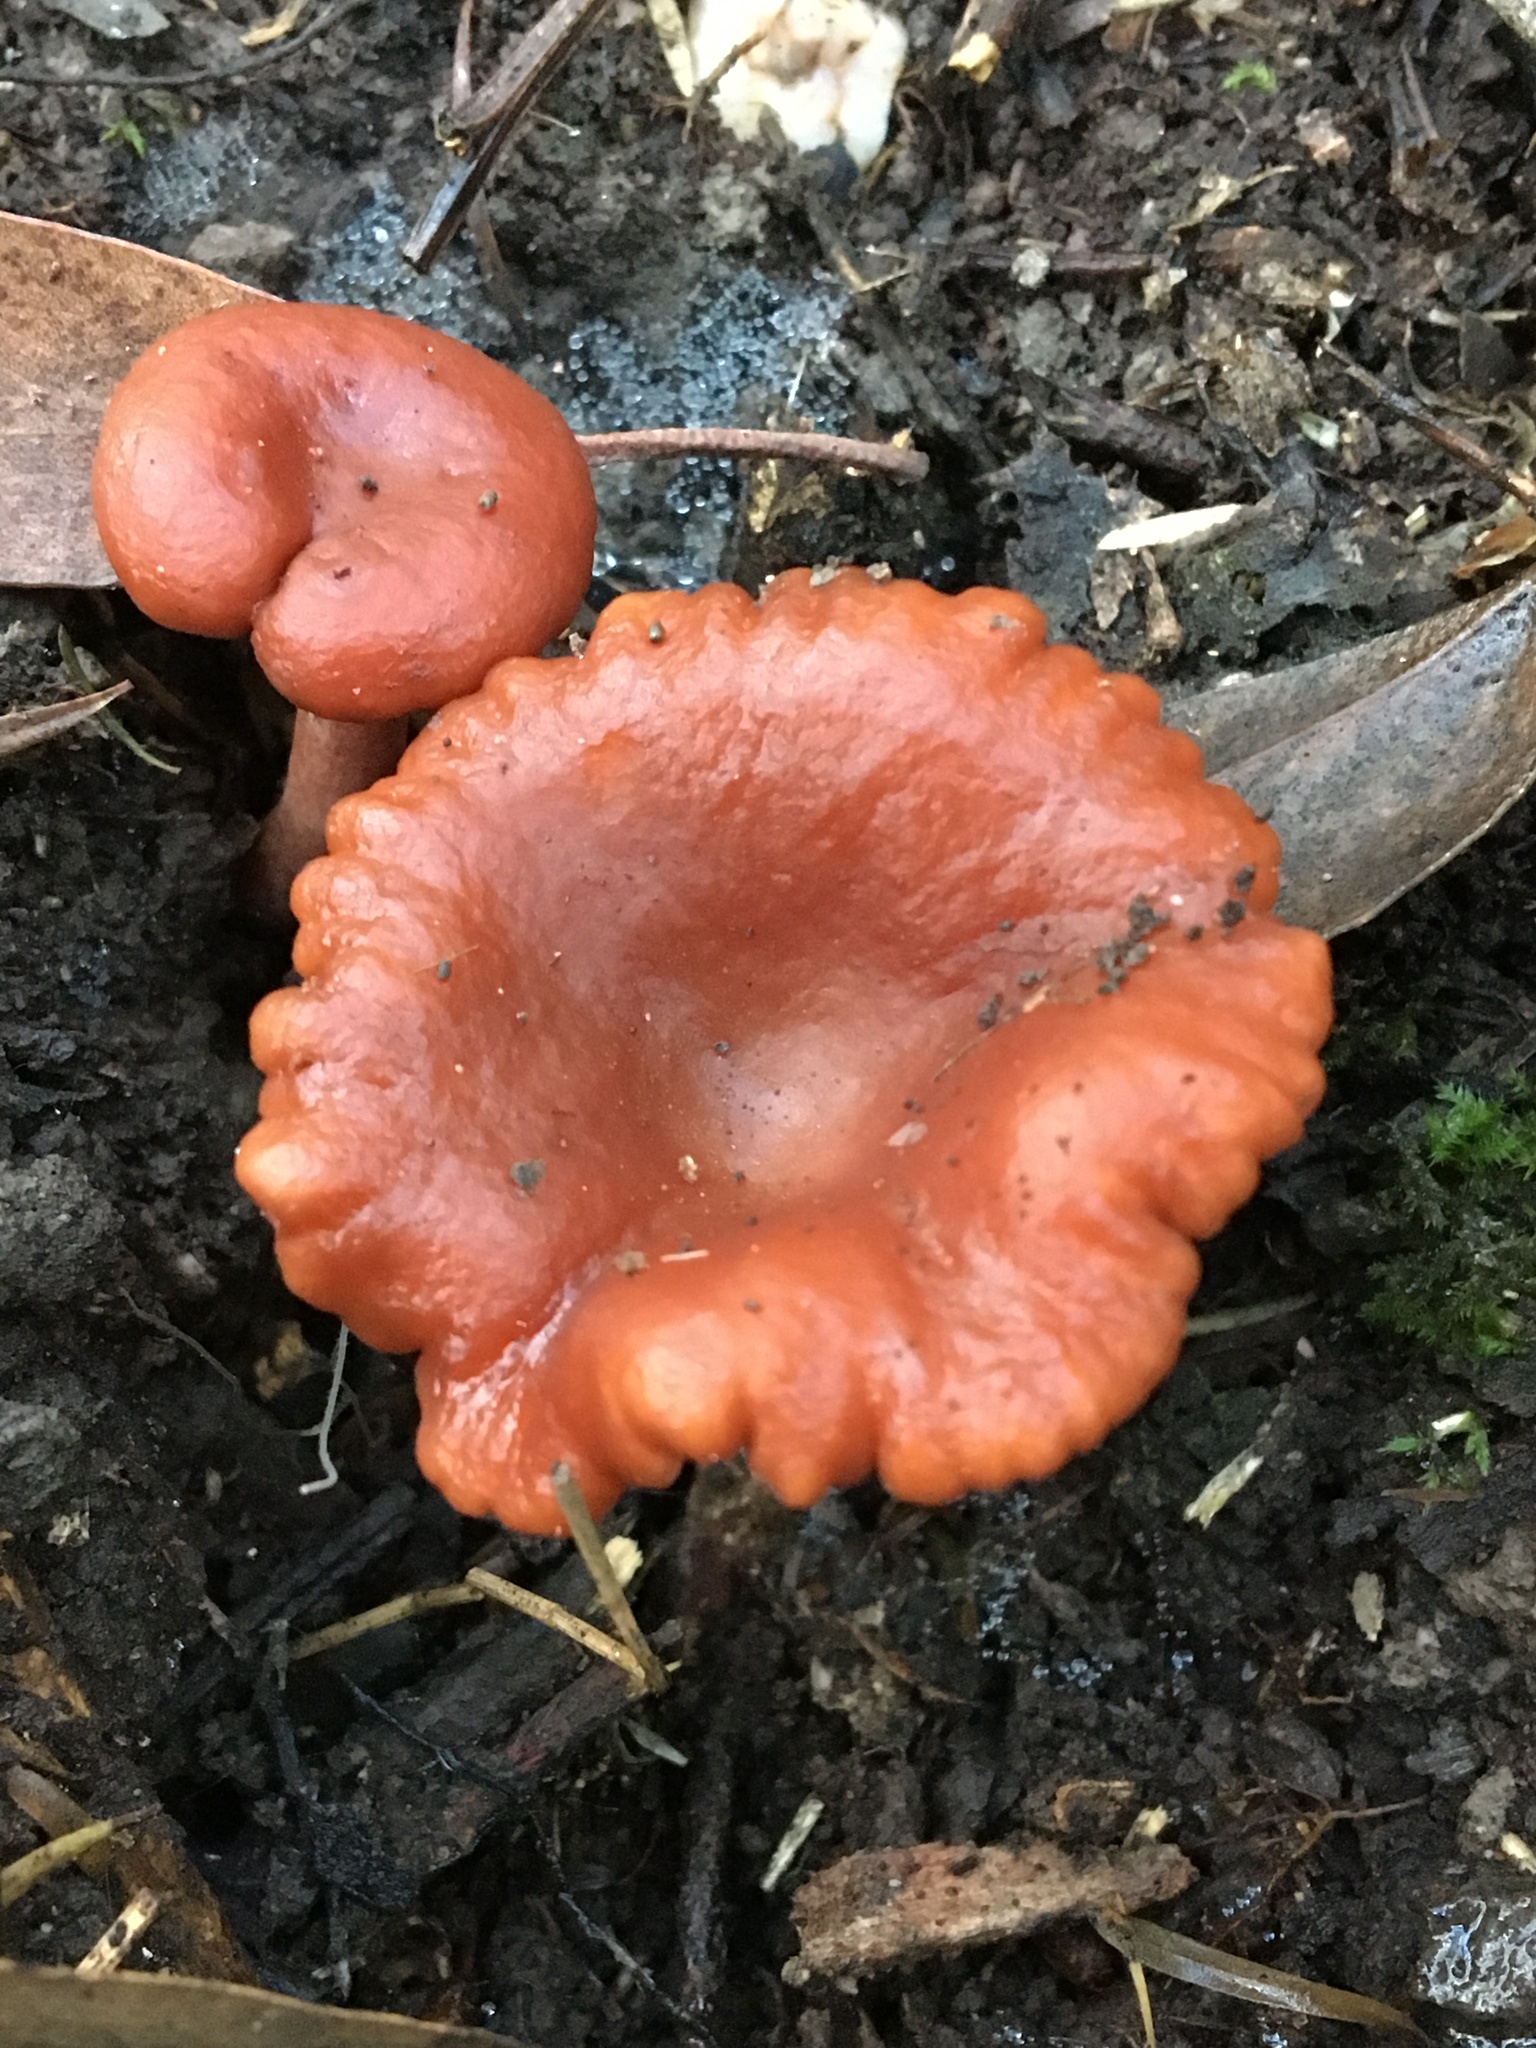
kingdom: Fungi
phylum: Basidiomycota
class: Agaricomycetes
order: Russulales
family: Russulaceae
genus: Lactarius
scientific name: Lactarius eucalypti
